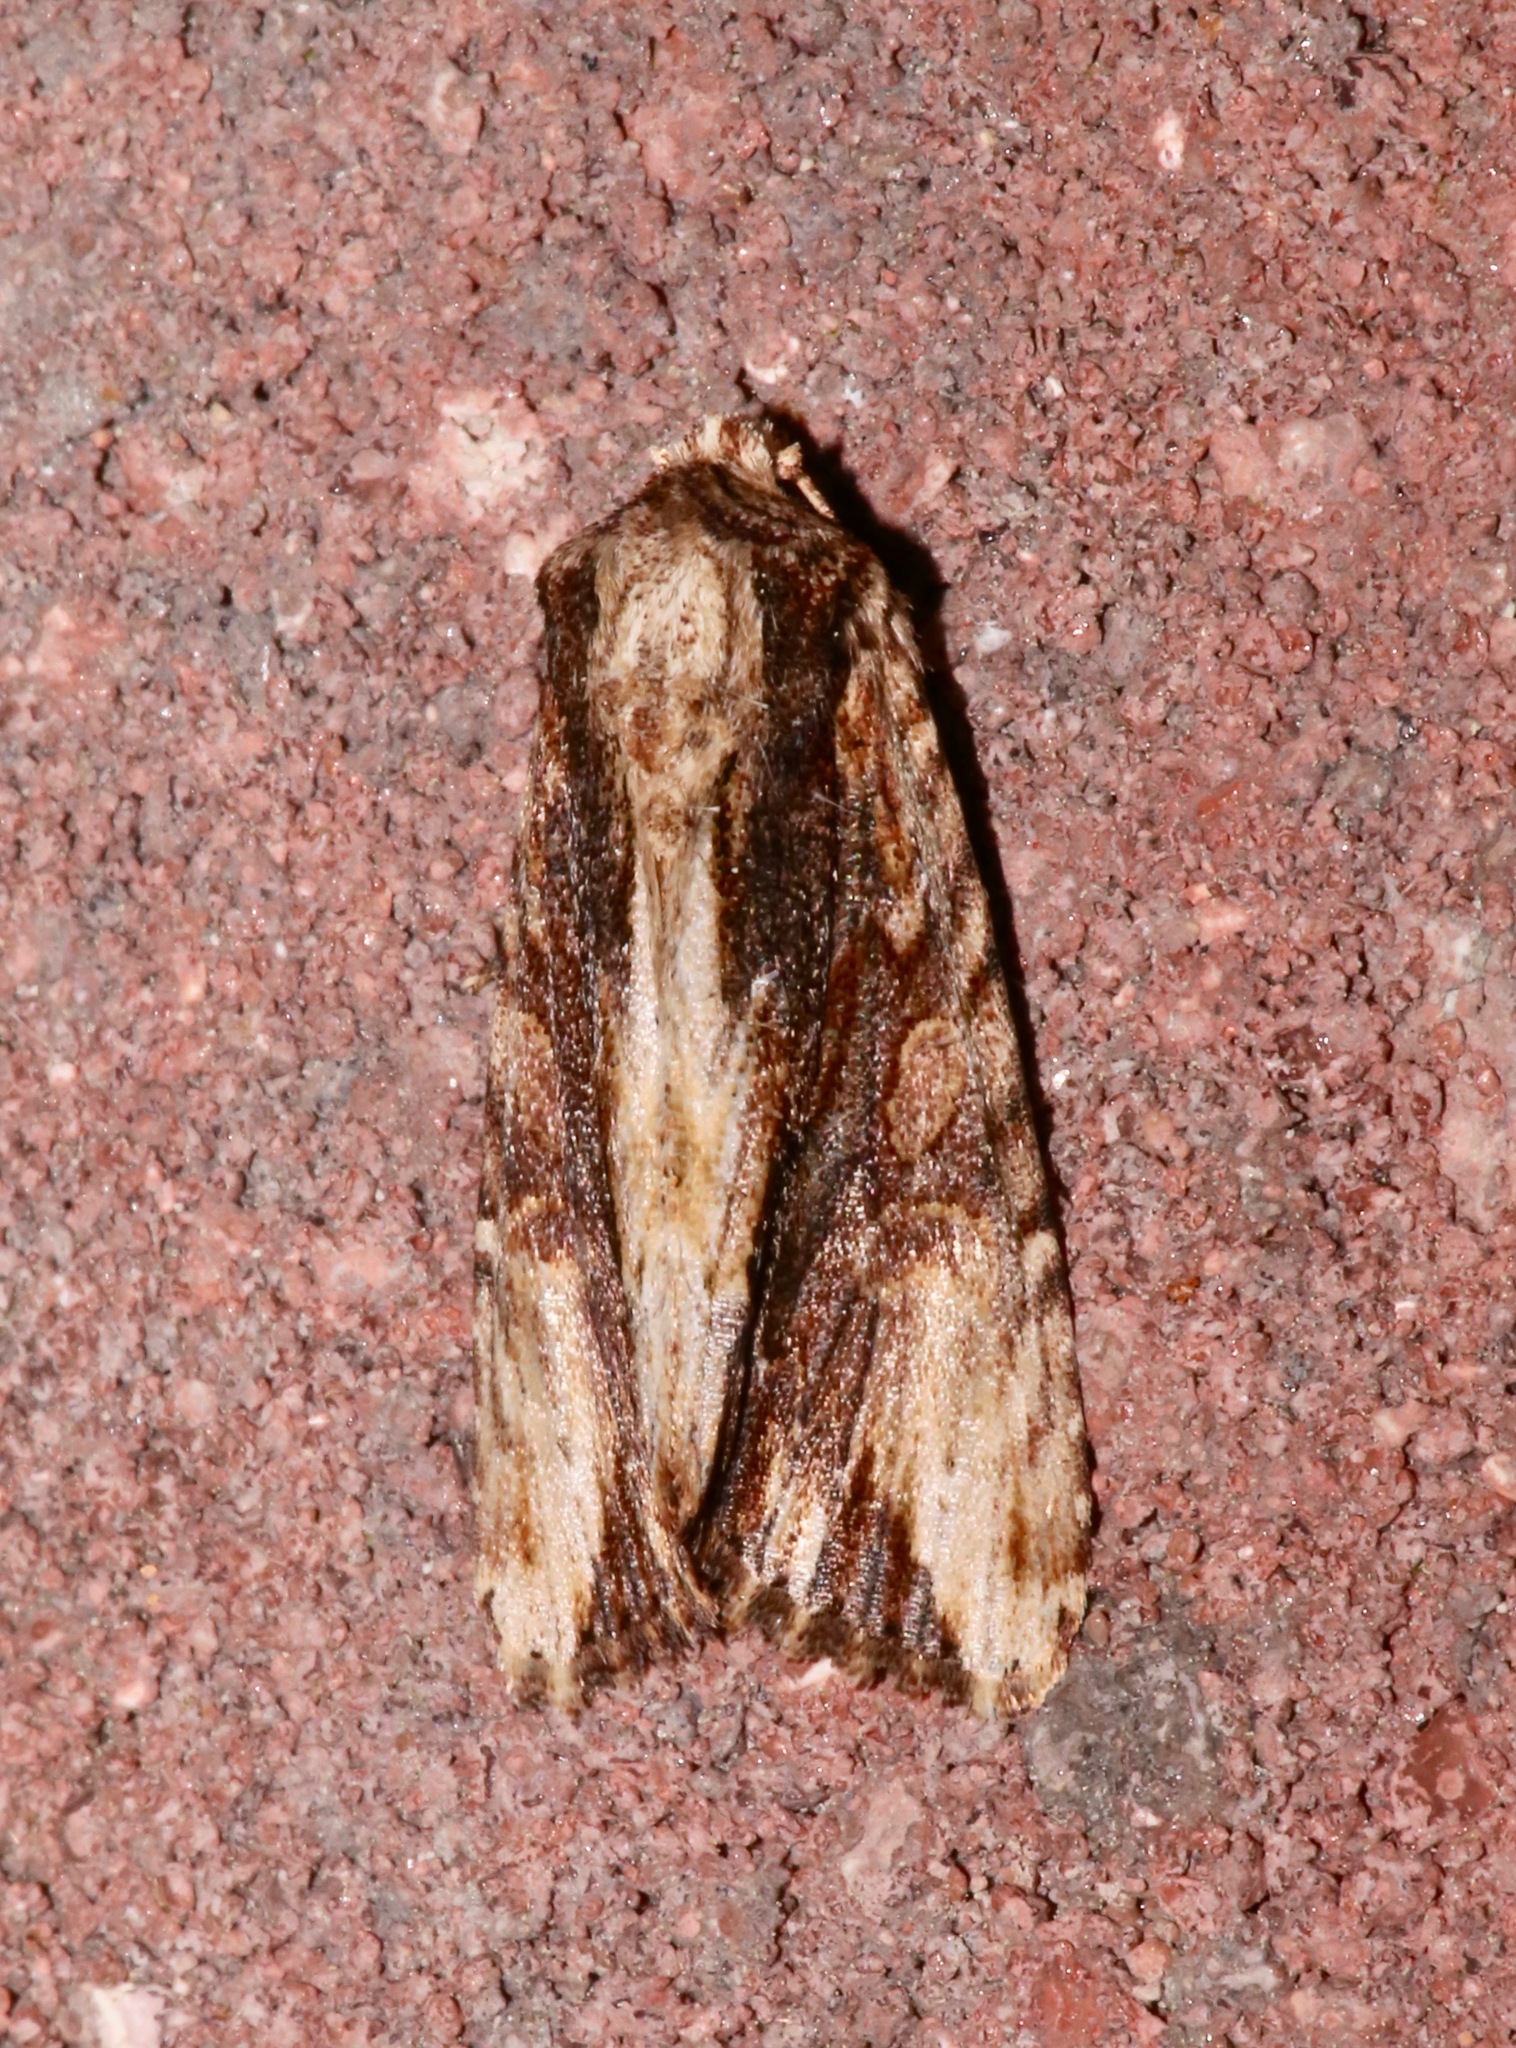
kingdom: Animalia
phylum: Arthropoda
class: Insecta
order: Lepidoptera
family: Noctuidae
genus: Achatia
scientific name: Achatia mucens
